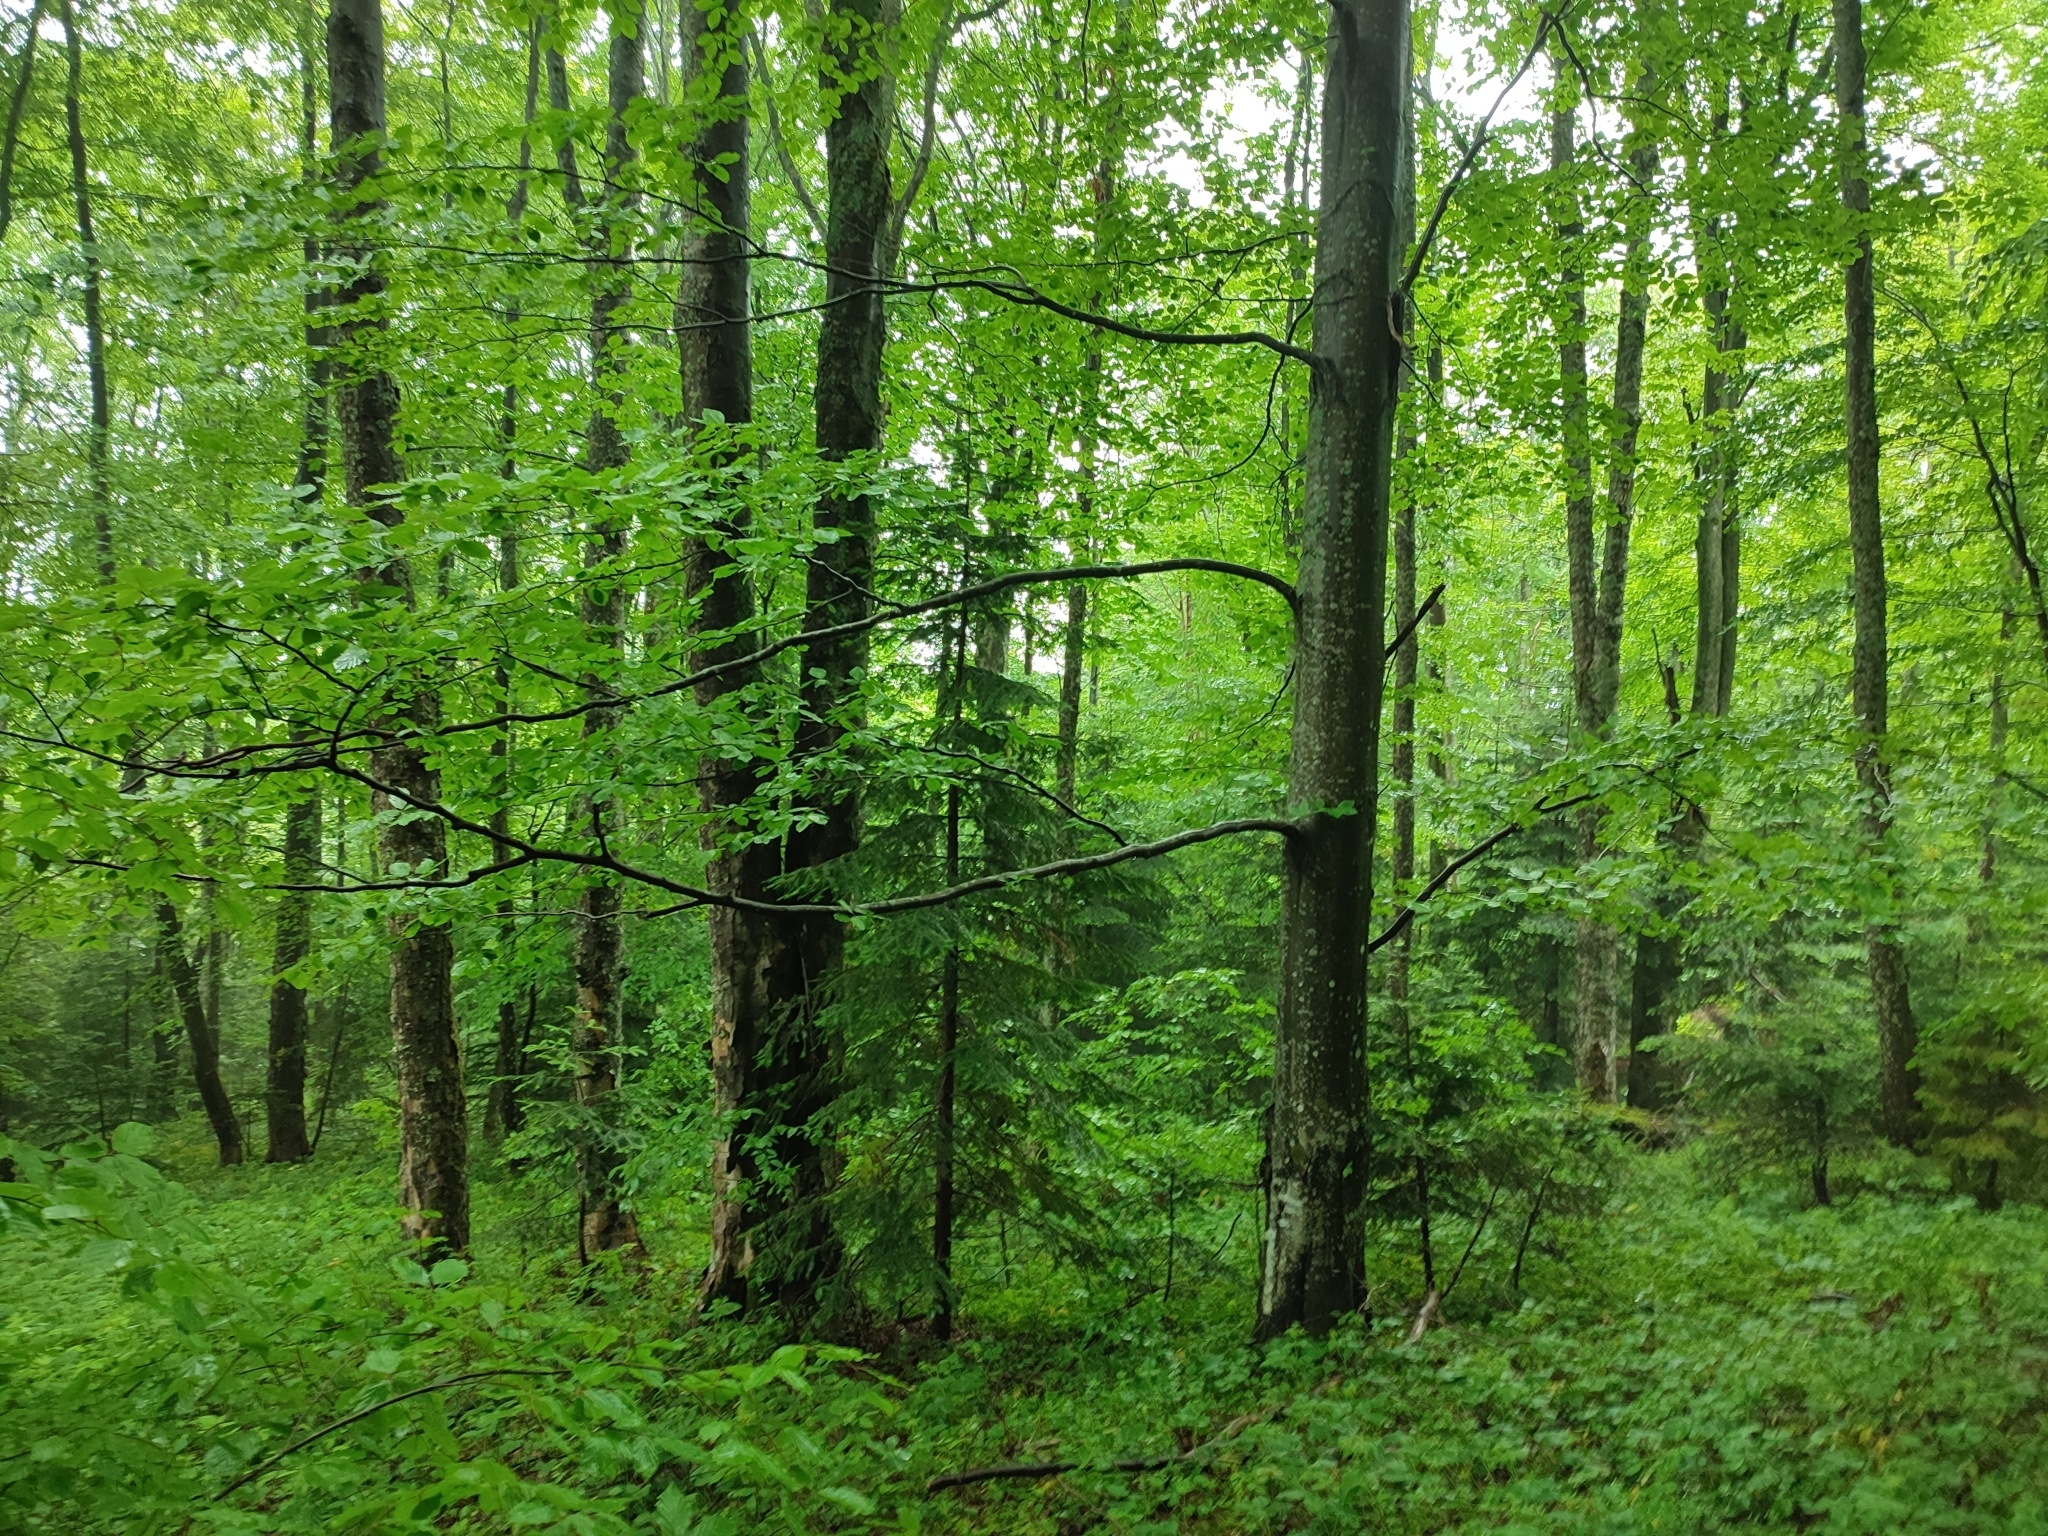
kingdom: Plantae
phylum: Tracheophyta
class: Magnoliopsida
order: Fagales
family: Fagaceae
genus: Fagus
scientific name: Fagus sylvatica
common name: Beech
